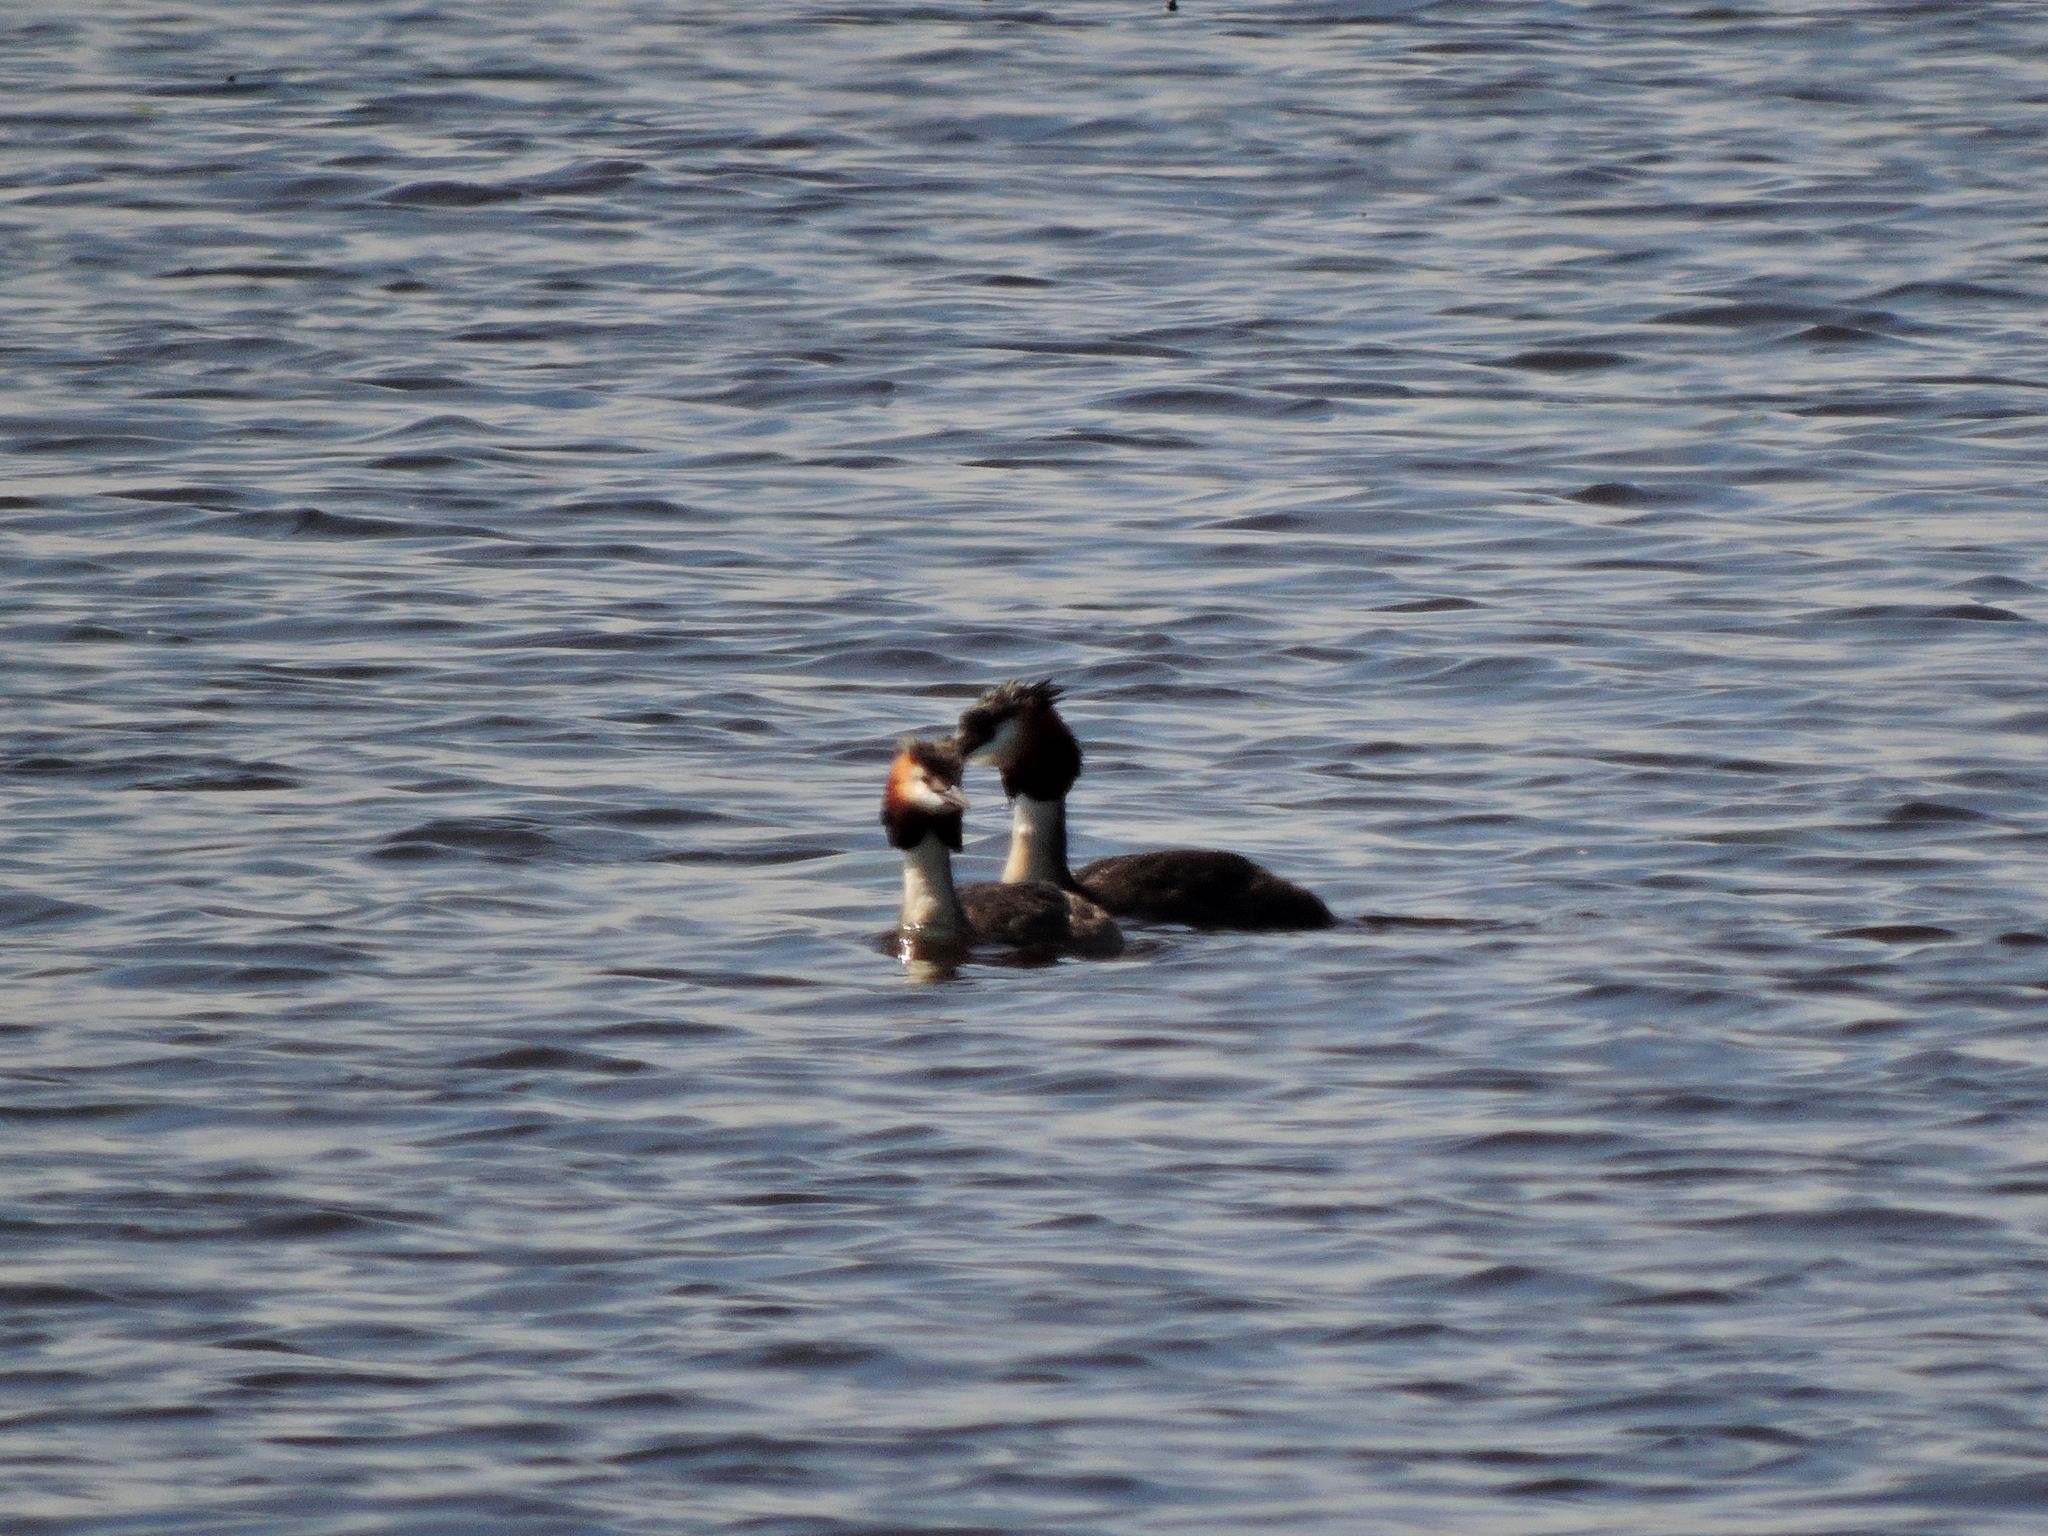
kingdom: Animalia
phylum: Chordata
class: Aves
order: Podicipediformes
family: Podicipedidae
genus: Podiceps
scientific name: Podiceps cristatus
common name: Great crested grebe
